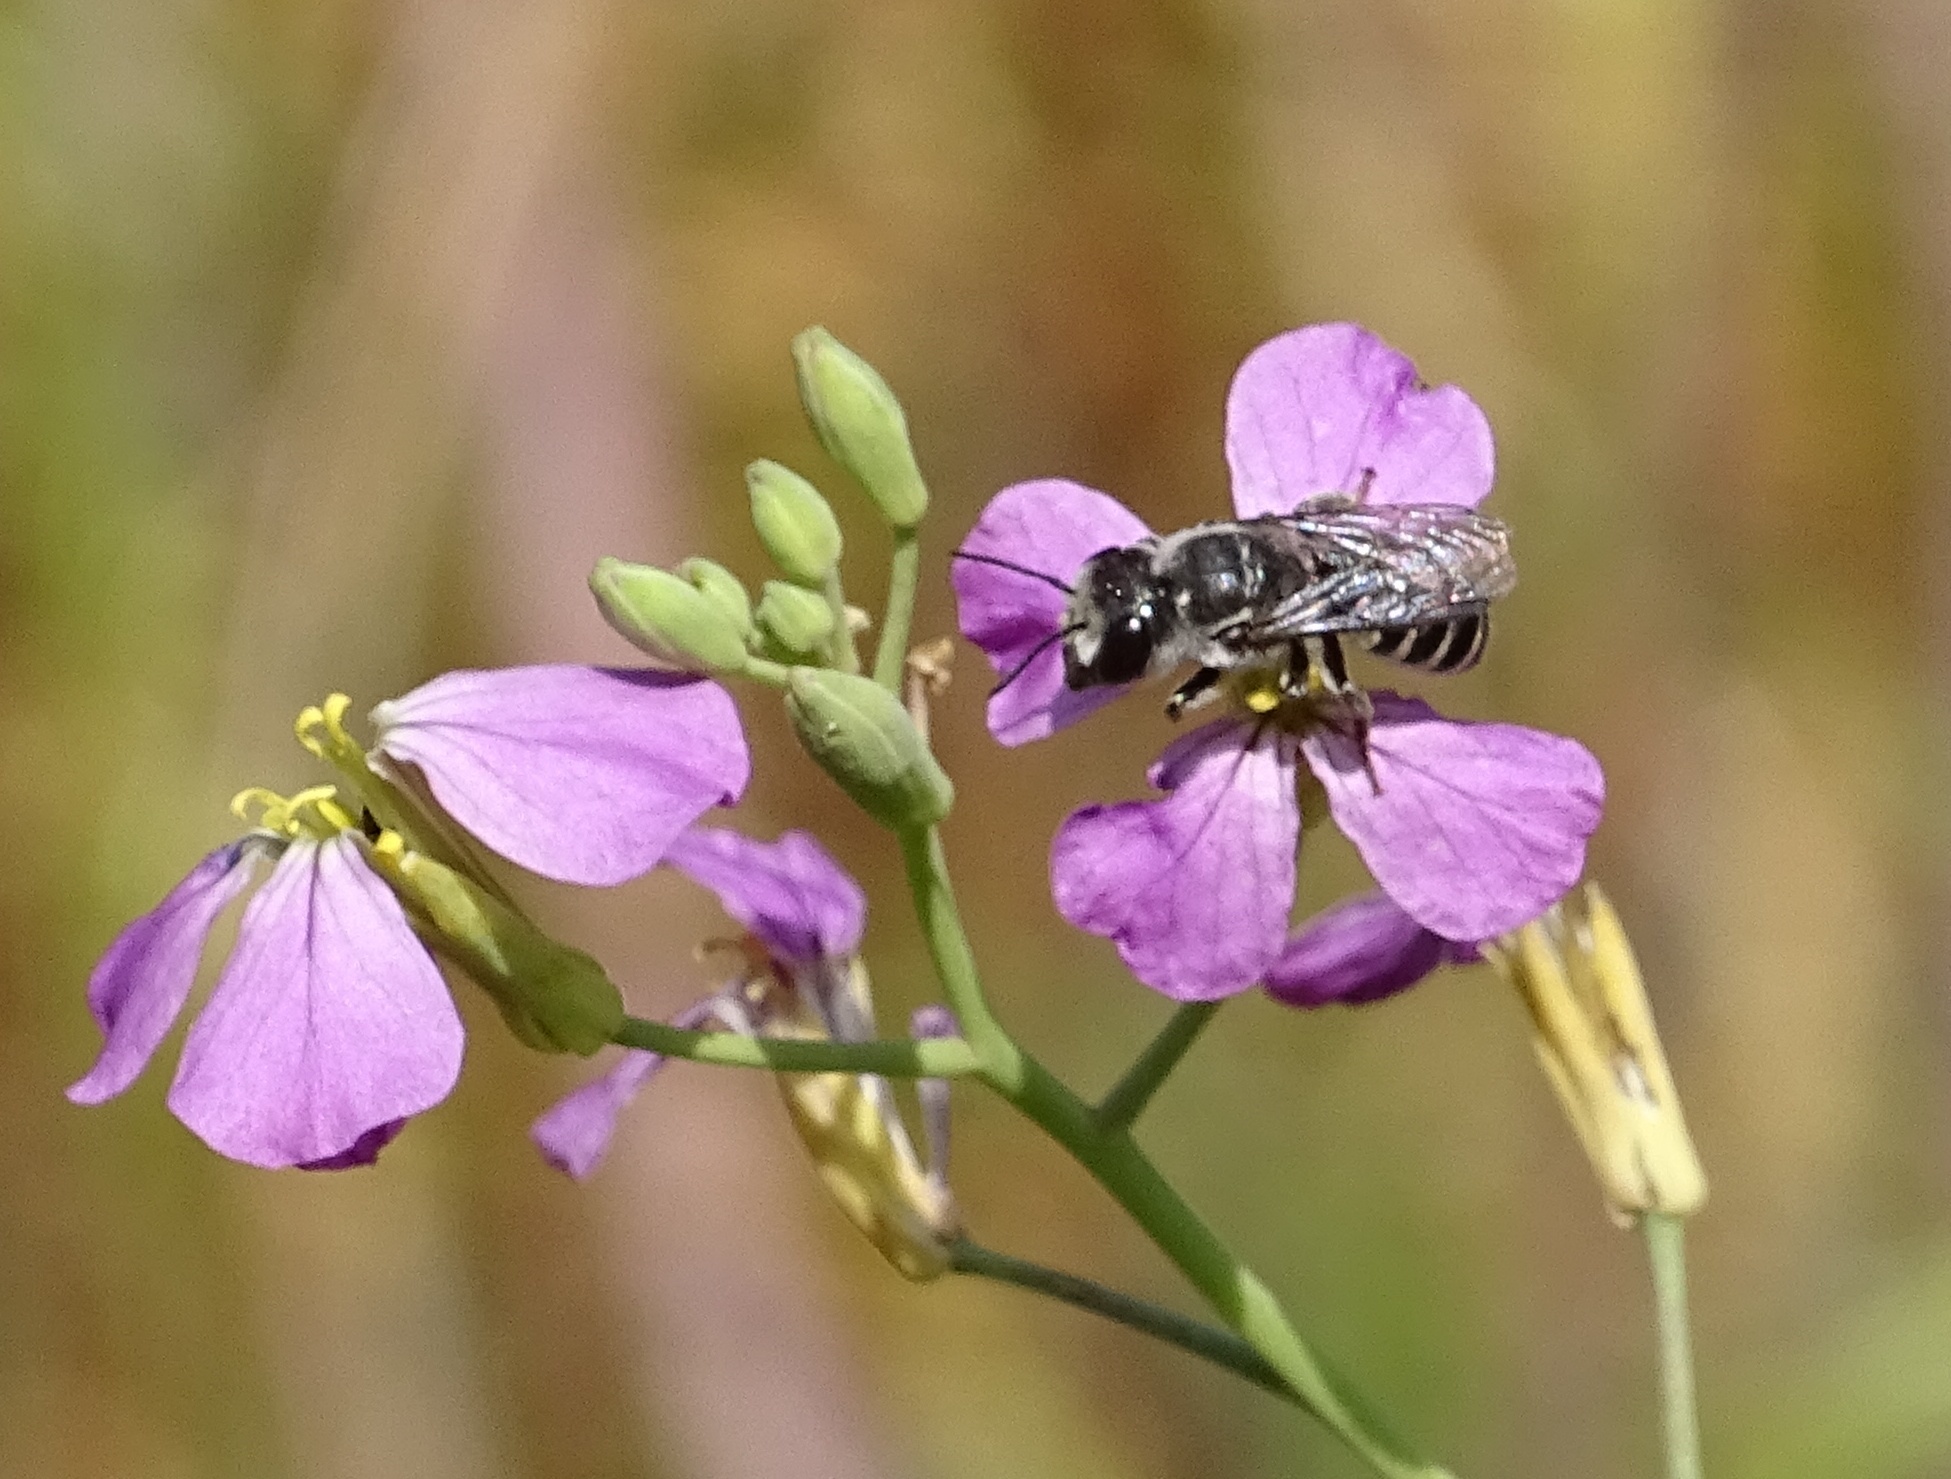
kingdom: Animalia
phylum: Arthropoda
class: Insecta
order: Hymenoptera
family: Megachilidae
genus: Megachile
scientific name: Megachile
